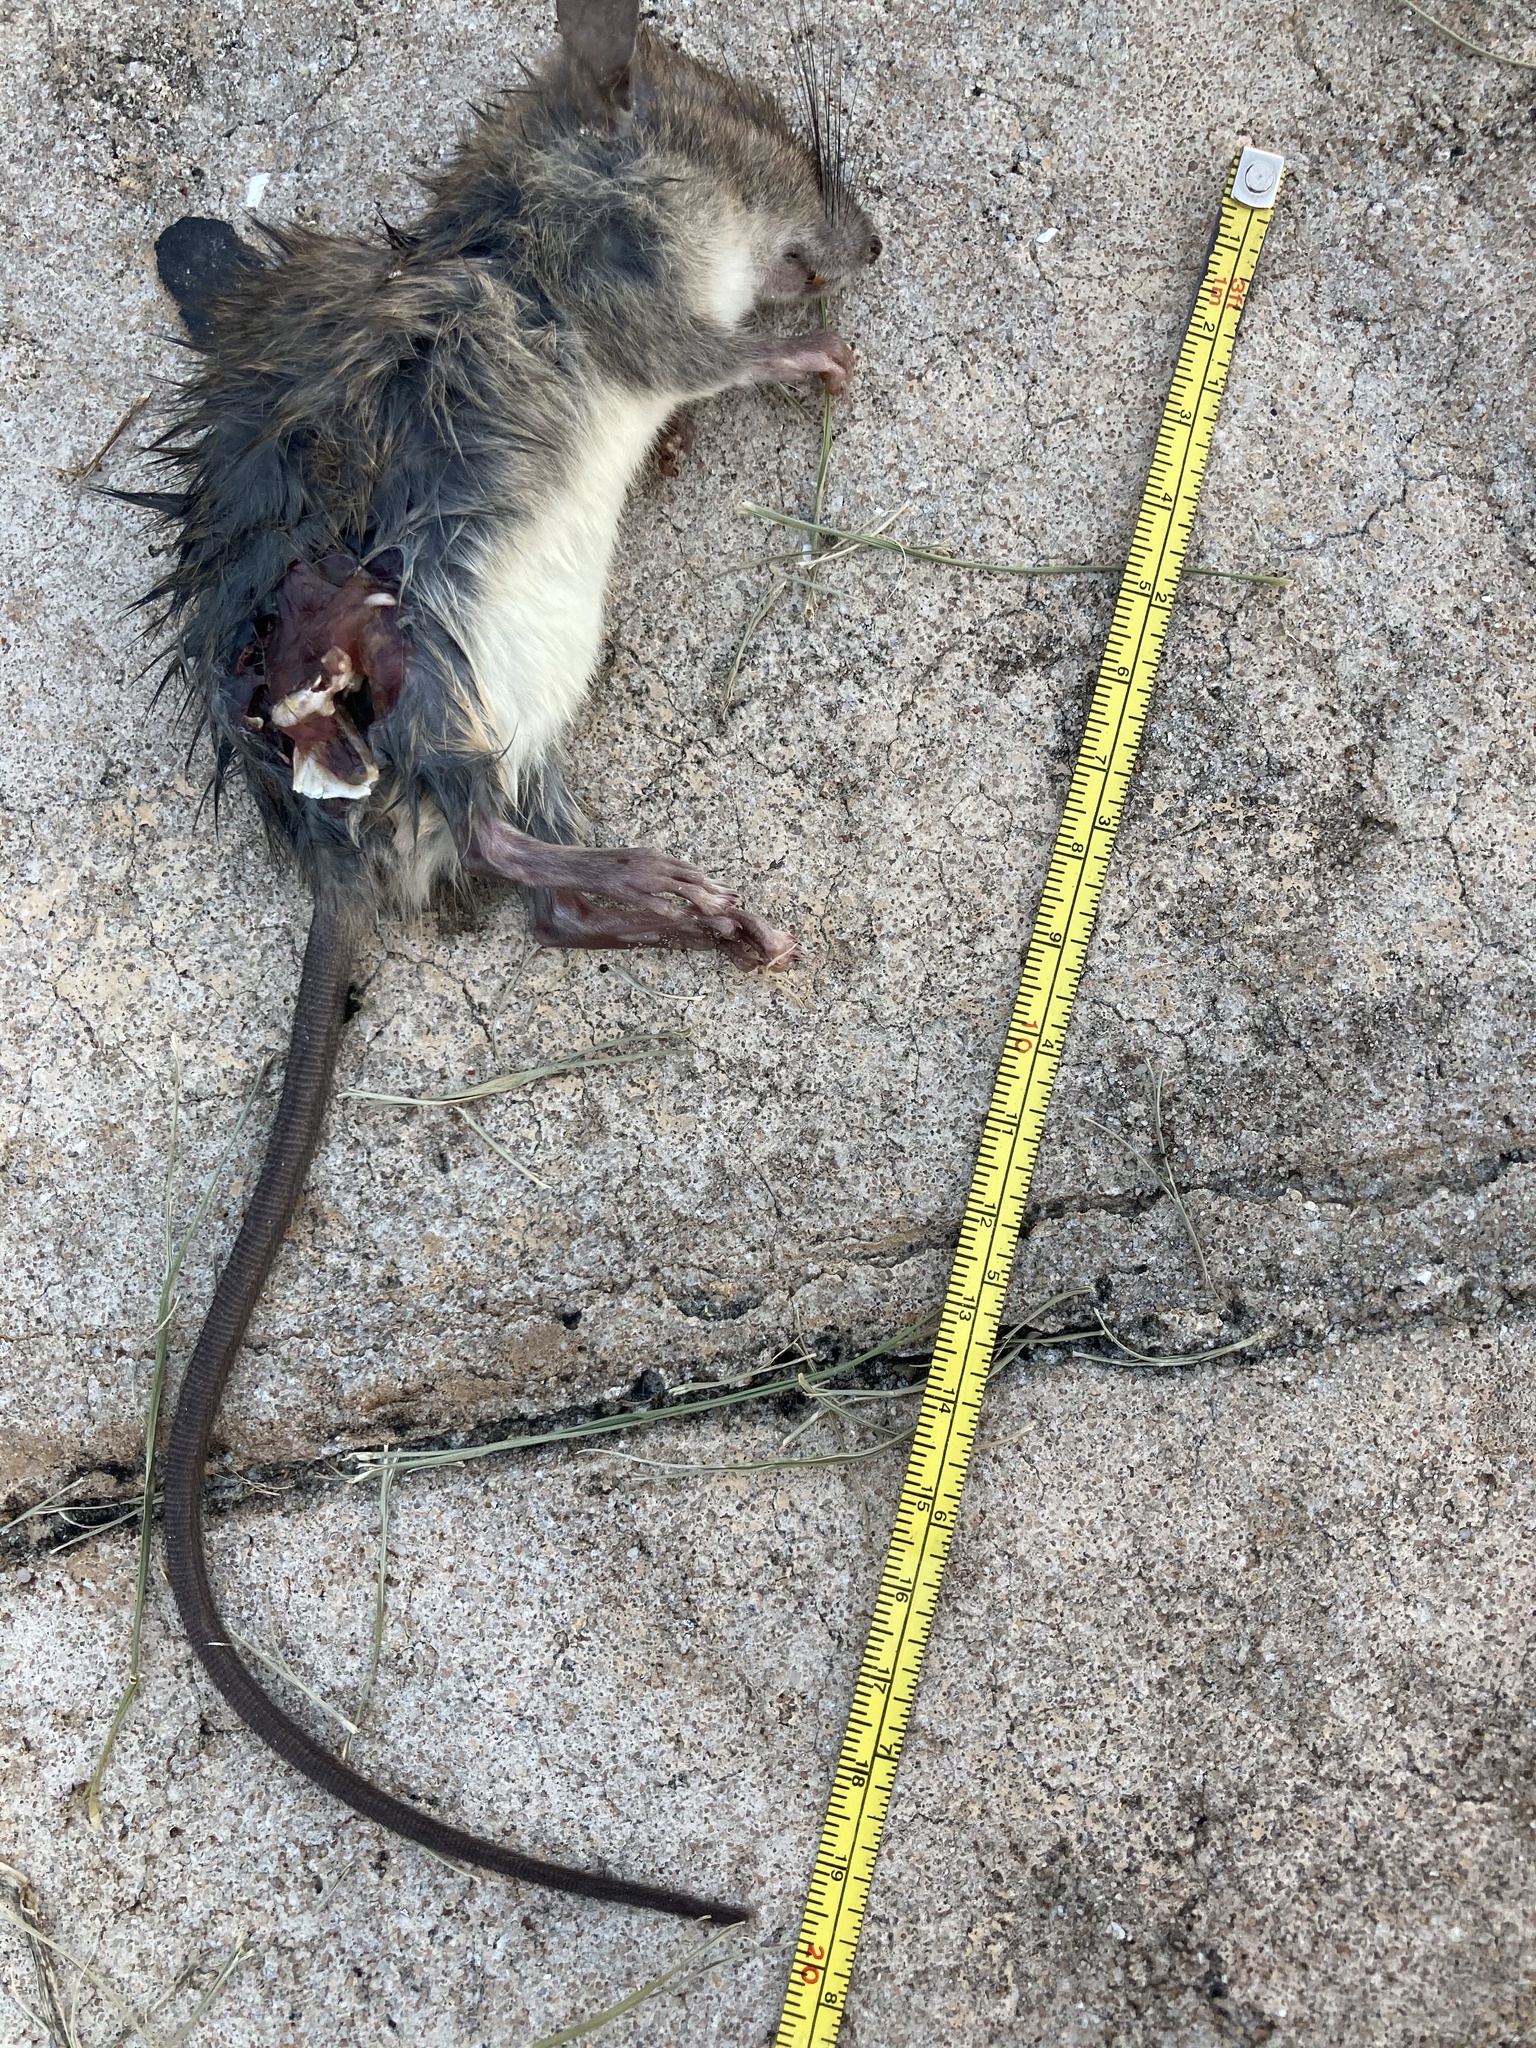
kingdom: Animalia
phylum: Chordata
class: Mammalia
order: Rodentia
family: Muridae
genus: Rattus
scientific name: Rattus rattus
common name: Black rat
